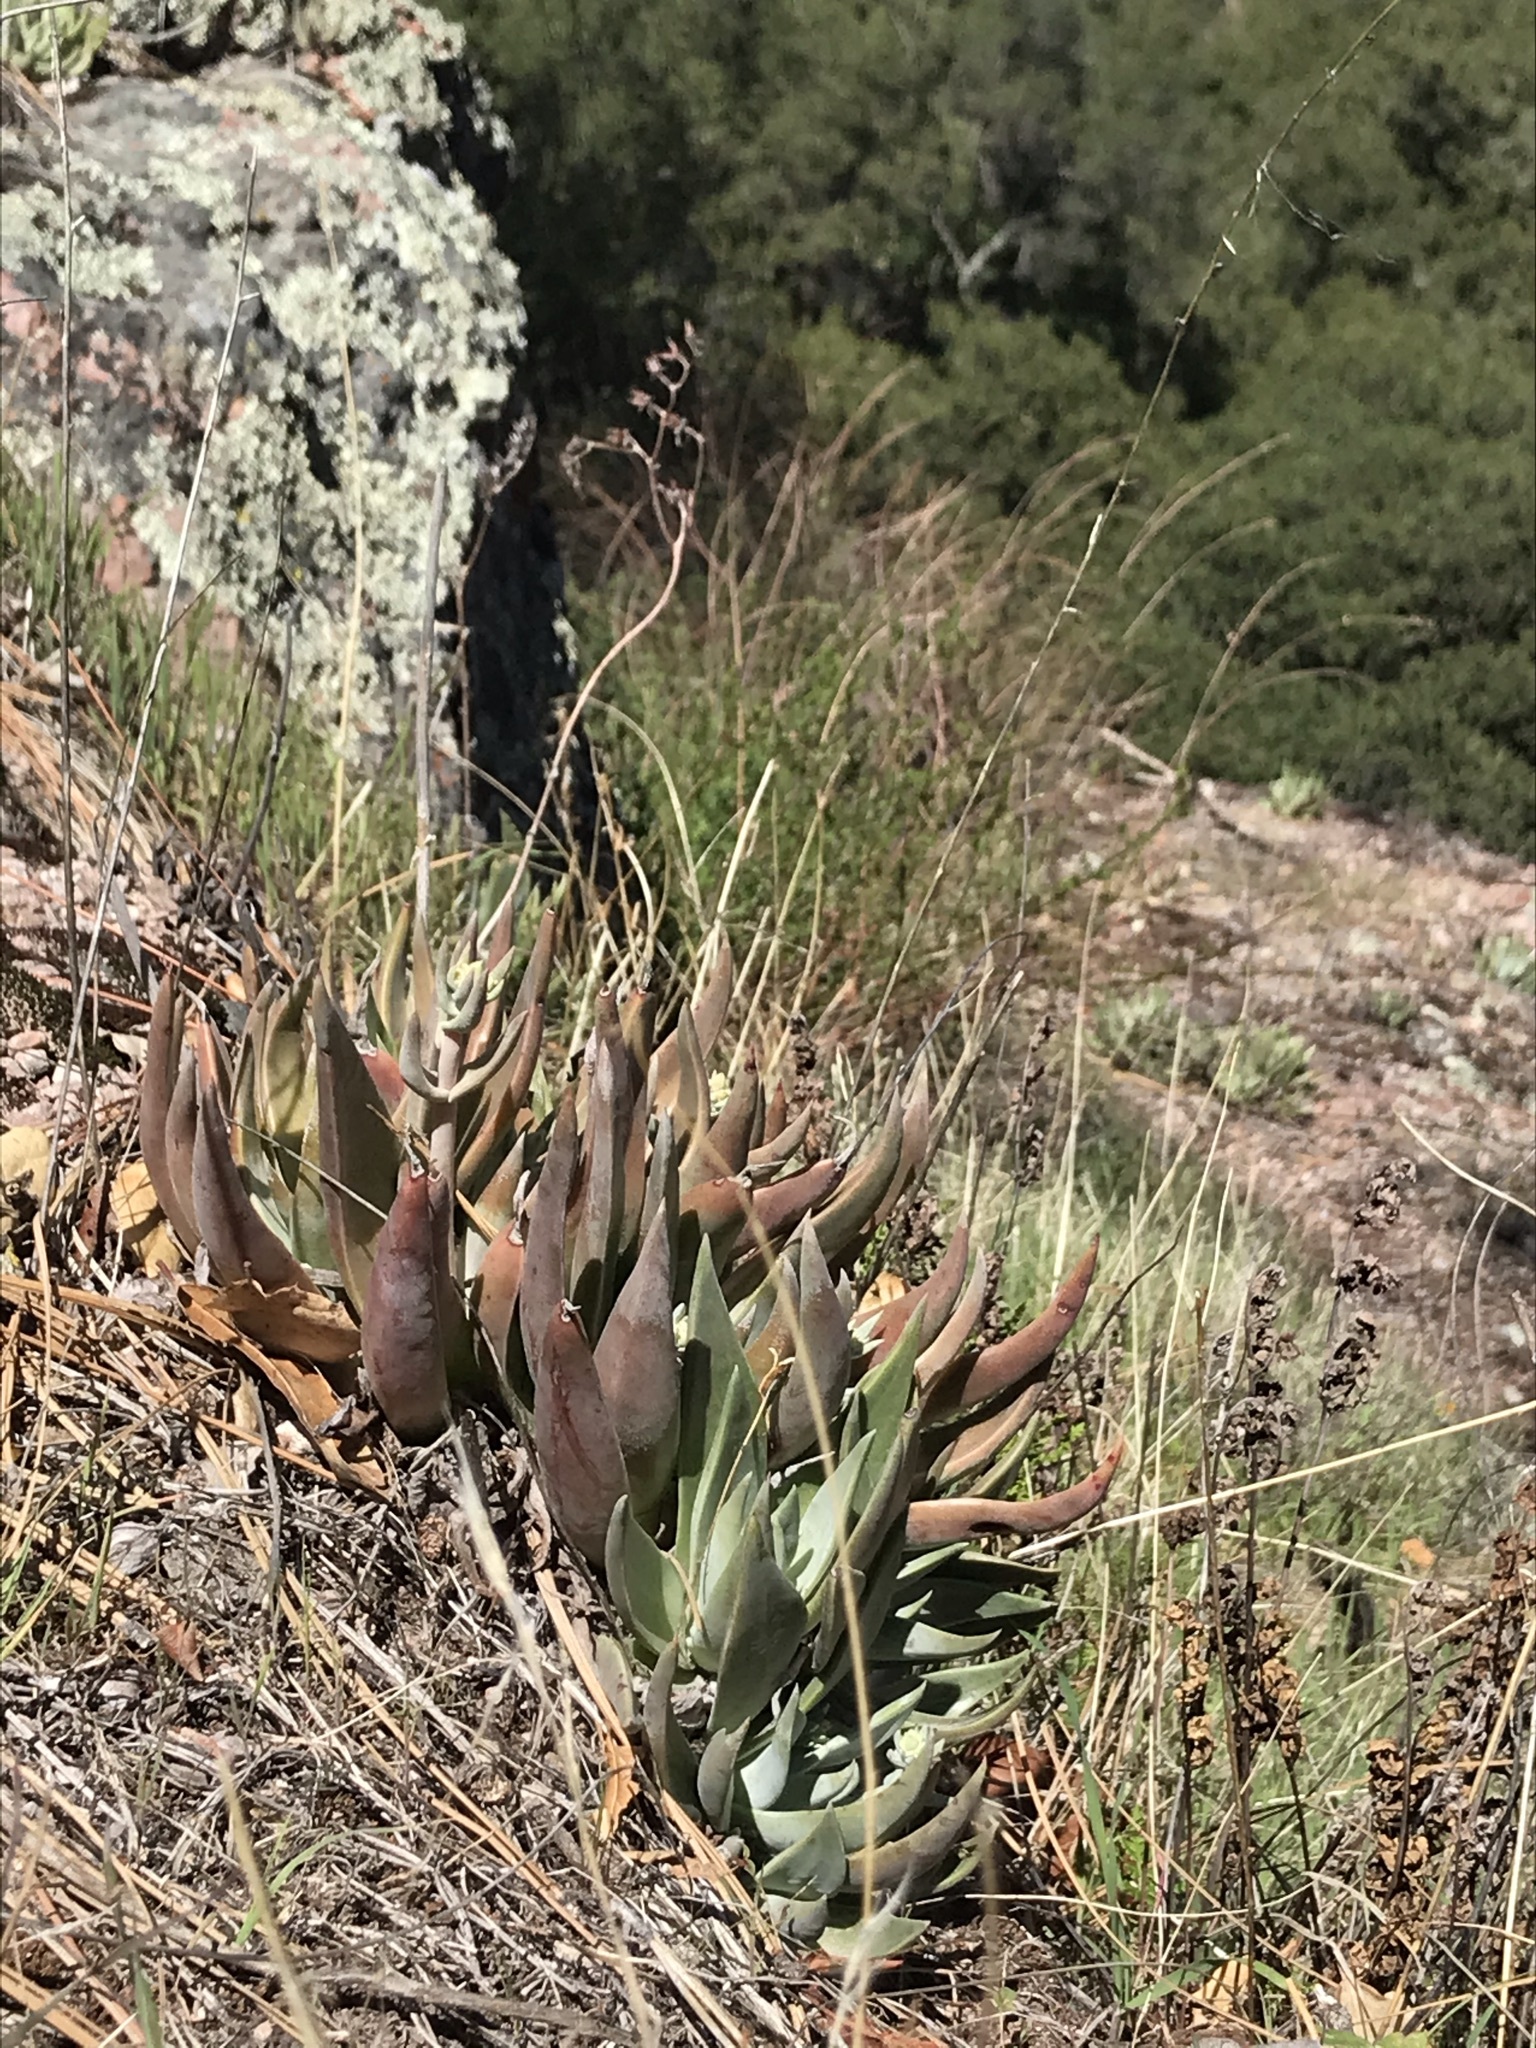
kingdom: Plantae
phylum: Tracheophyta
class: Magnoliopsida
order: Saxifragales
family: Crassulaceae
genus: Dudleya
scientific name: Dudleya lanceolata
